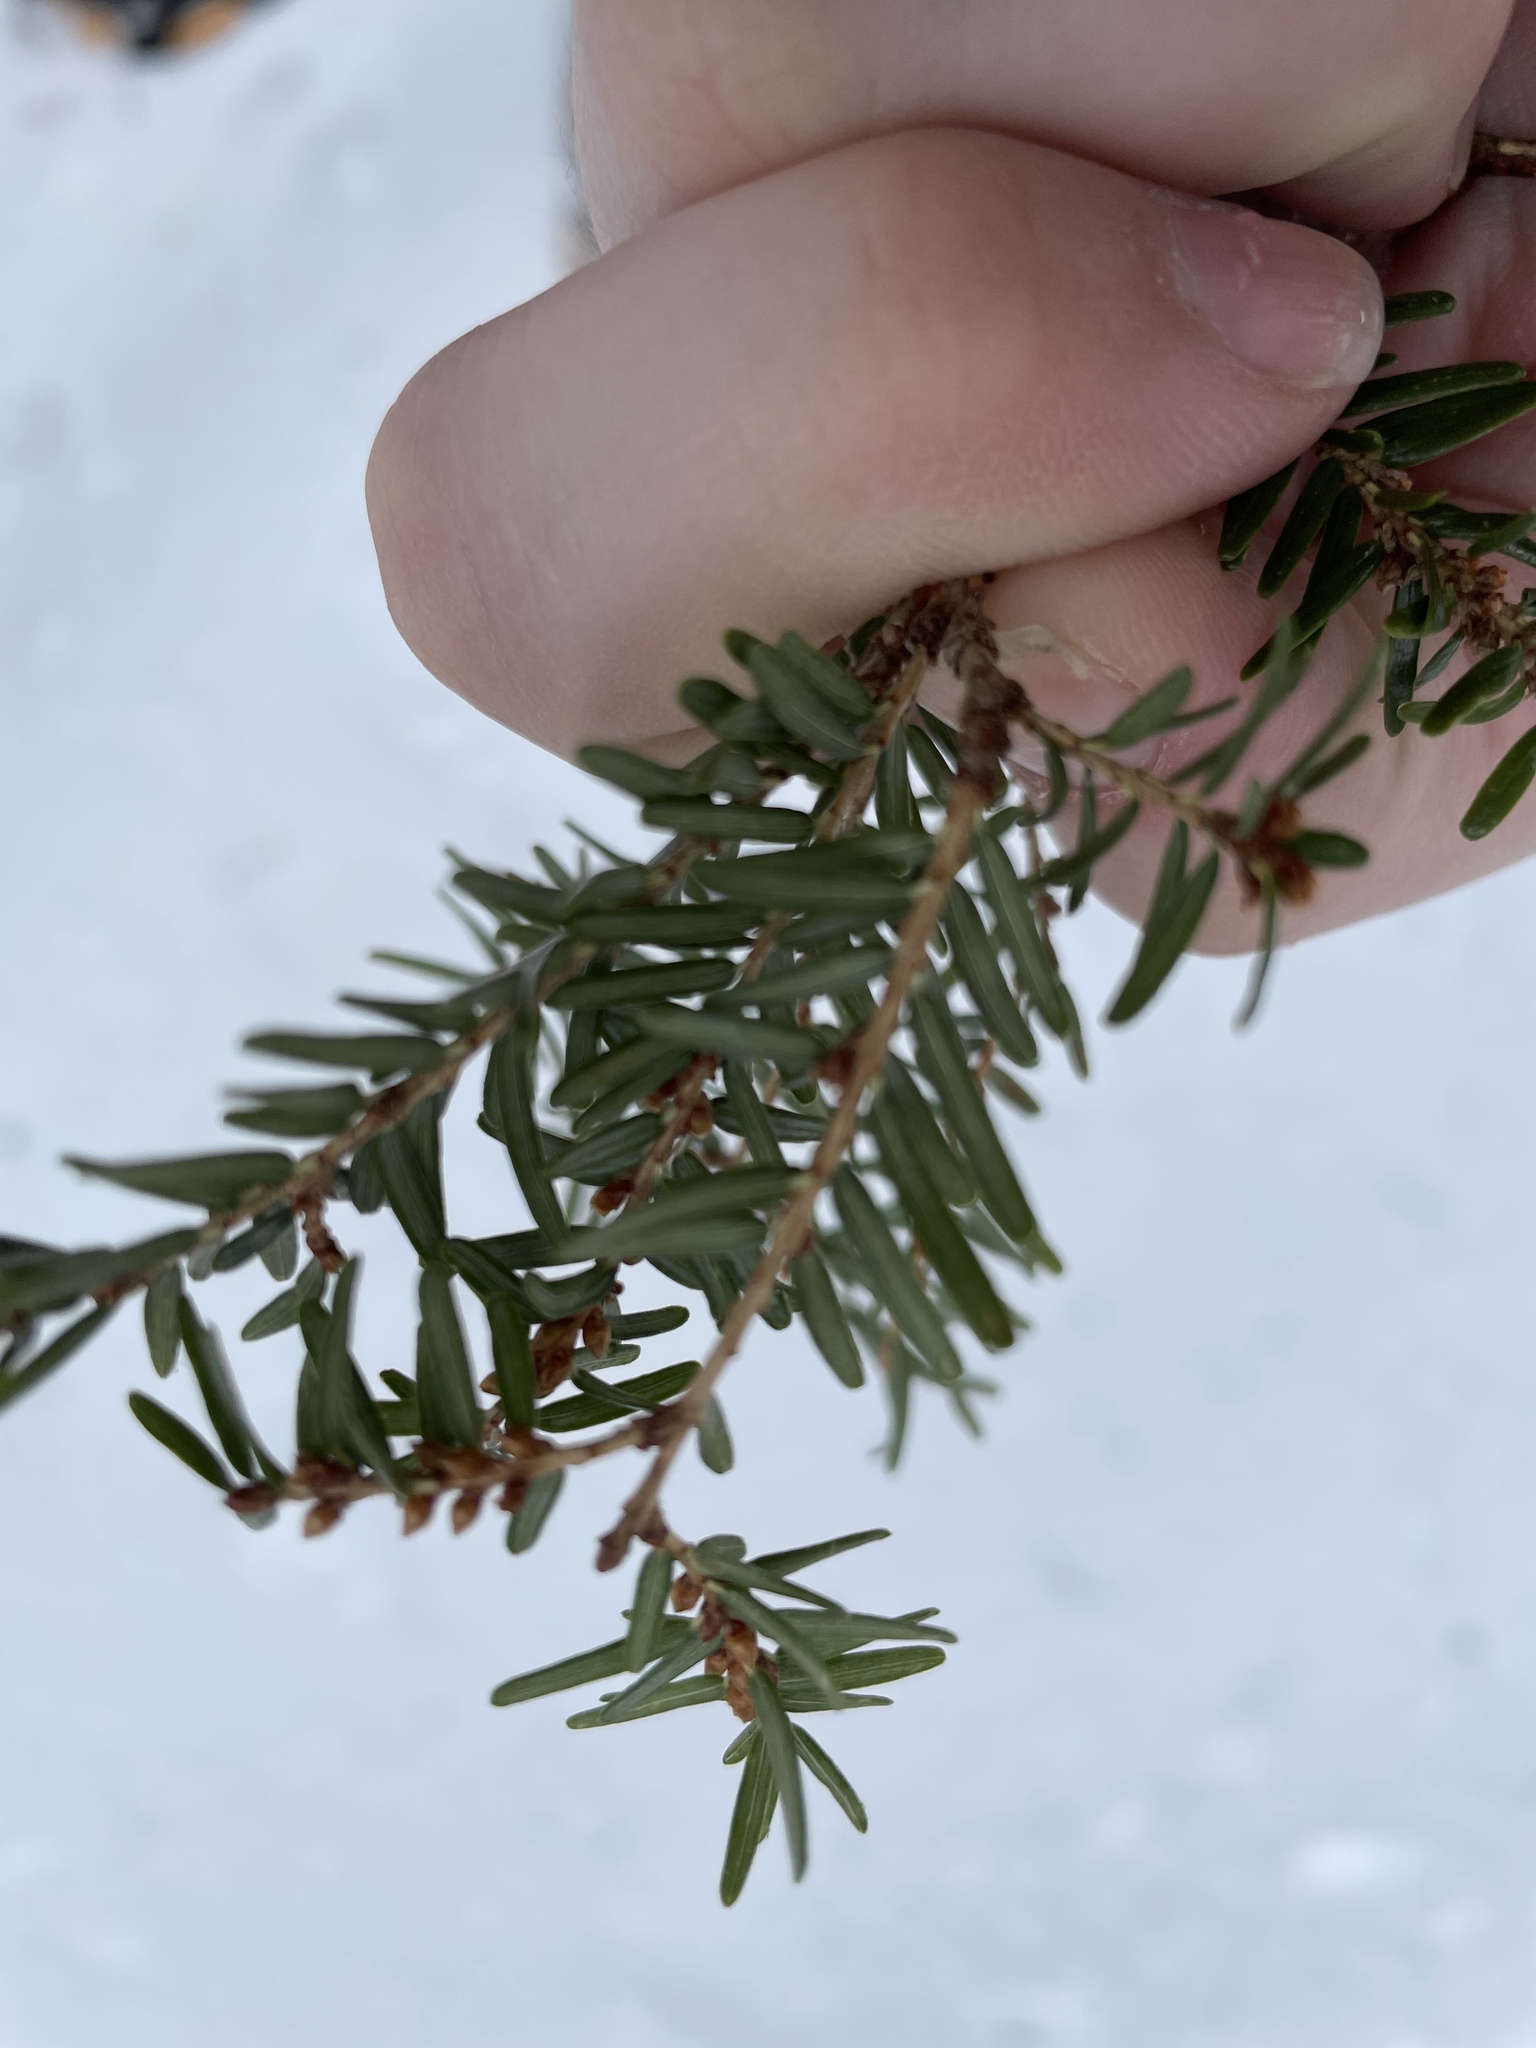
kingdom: Plantae
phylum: Tracheophyta
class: Pinopsida
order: Pinales
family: Pinaceae
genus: Tsuga
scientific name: Tsuga canadensis
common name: Eastern hemlock
